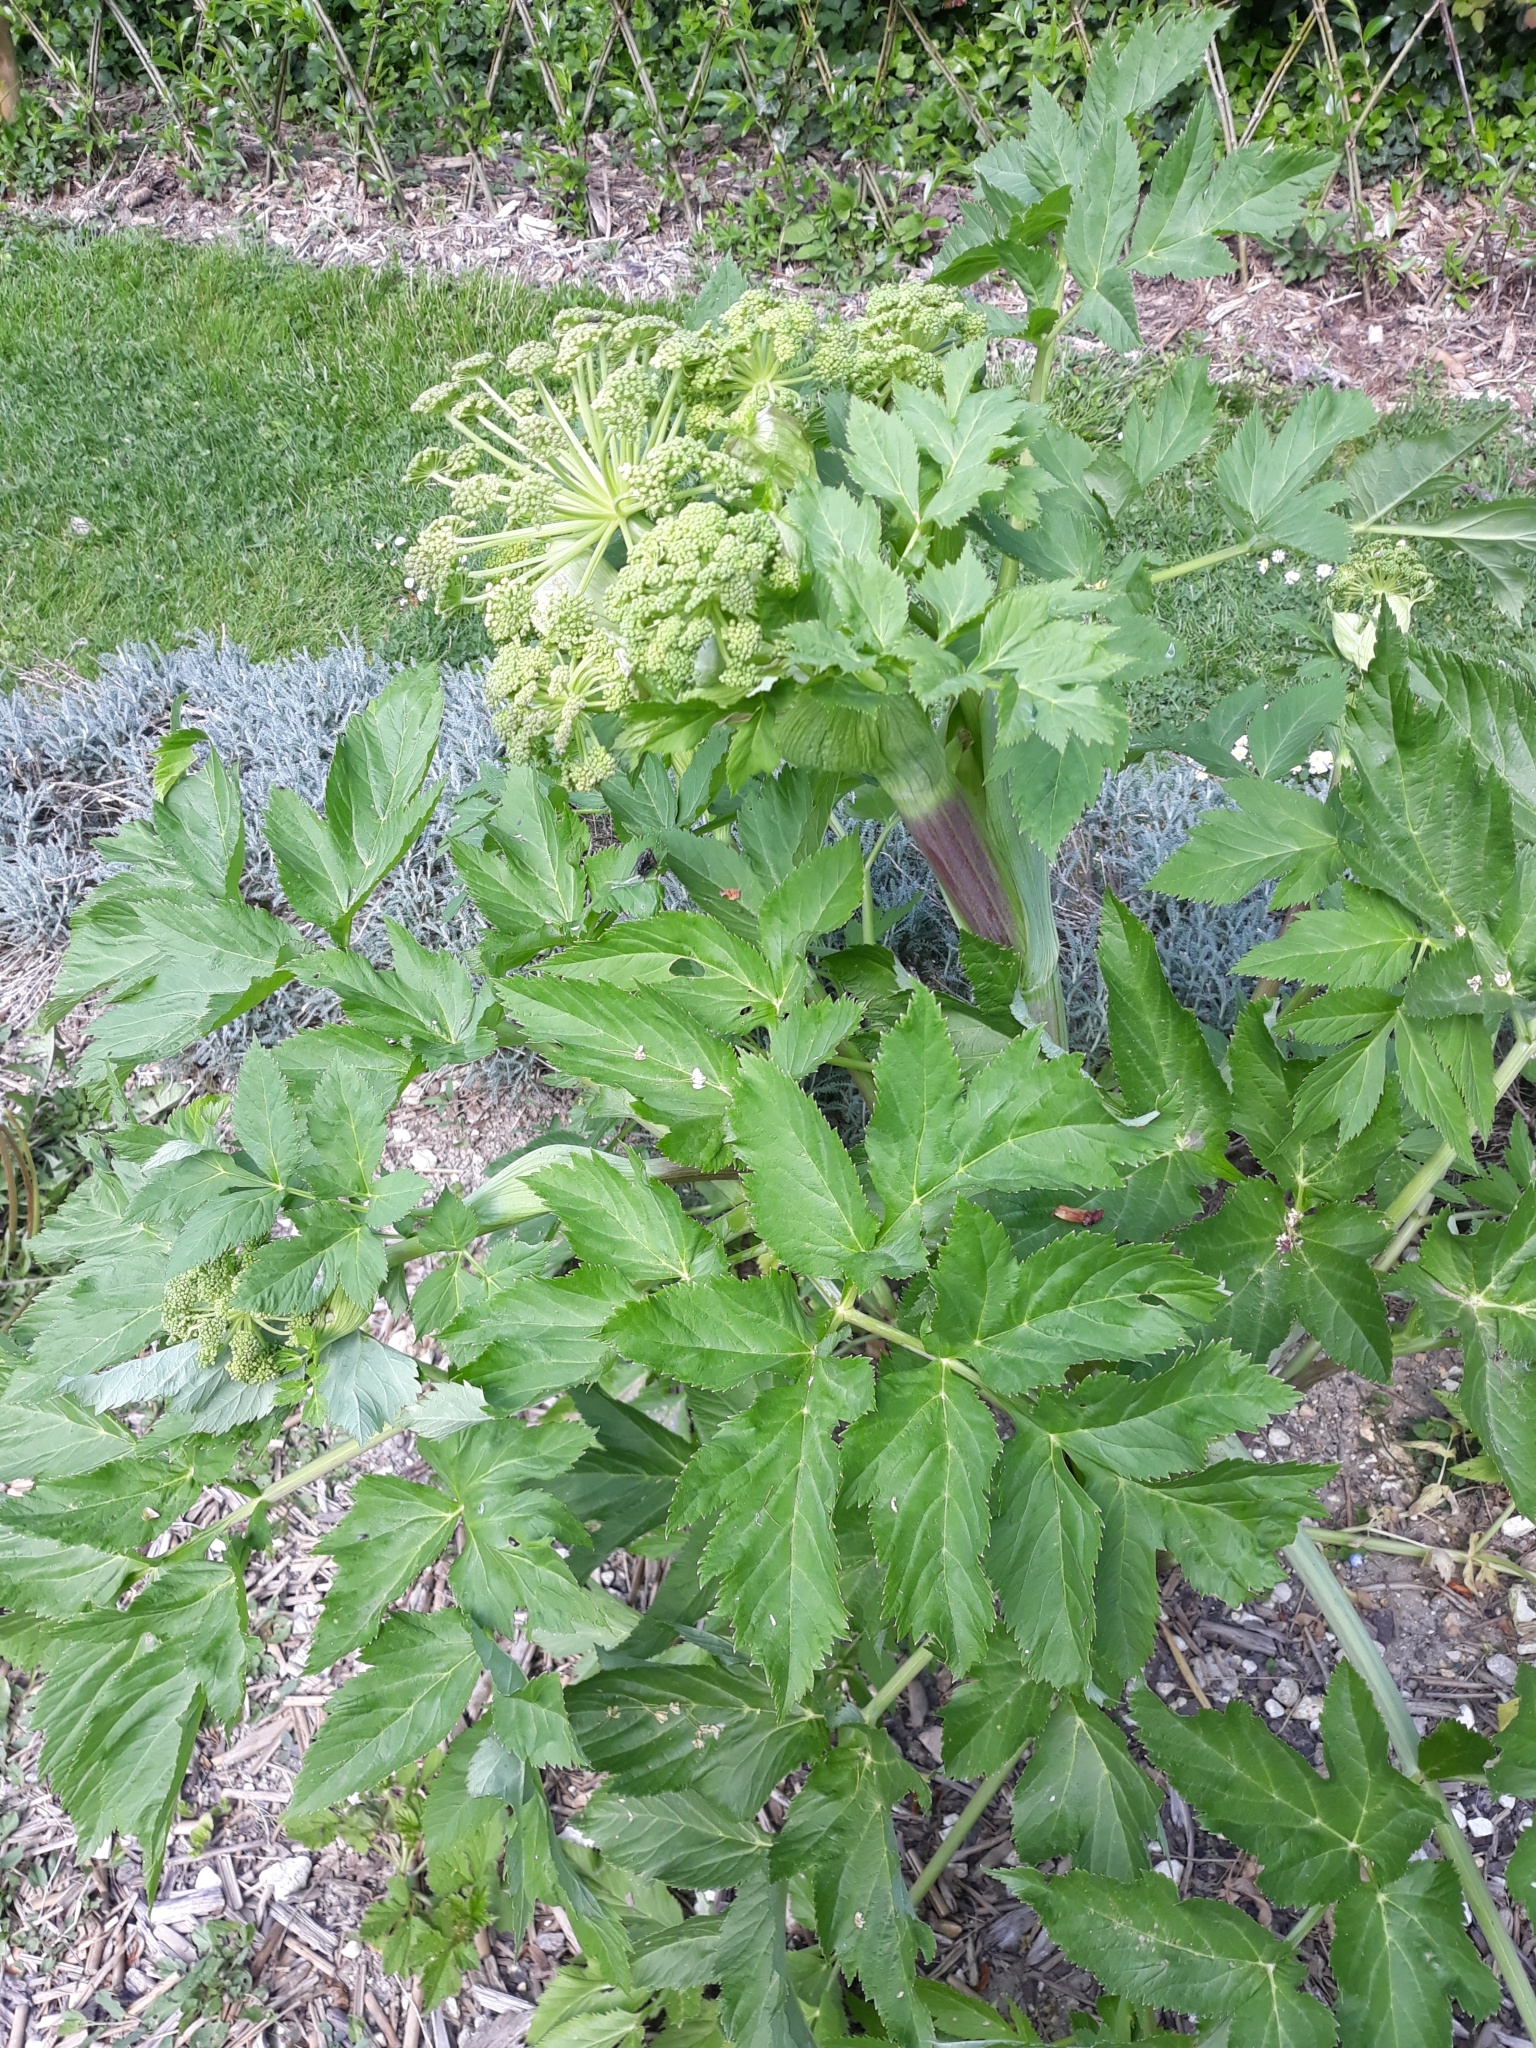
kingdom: Plantae
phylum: Tracheophyta
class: Magnoliopsida
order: Apiales
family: Apiaceae
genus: Angelica
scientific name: Angelica archangelica
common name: Garden angelica
